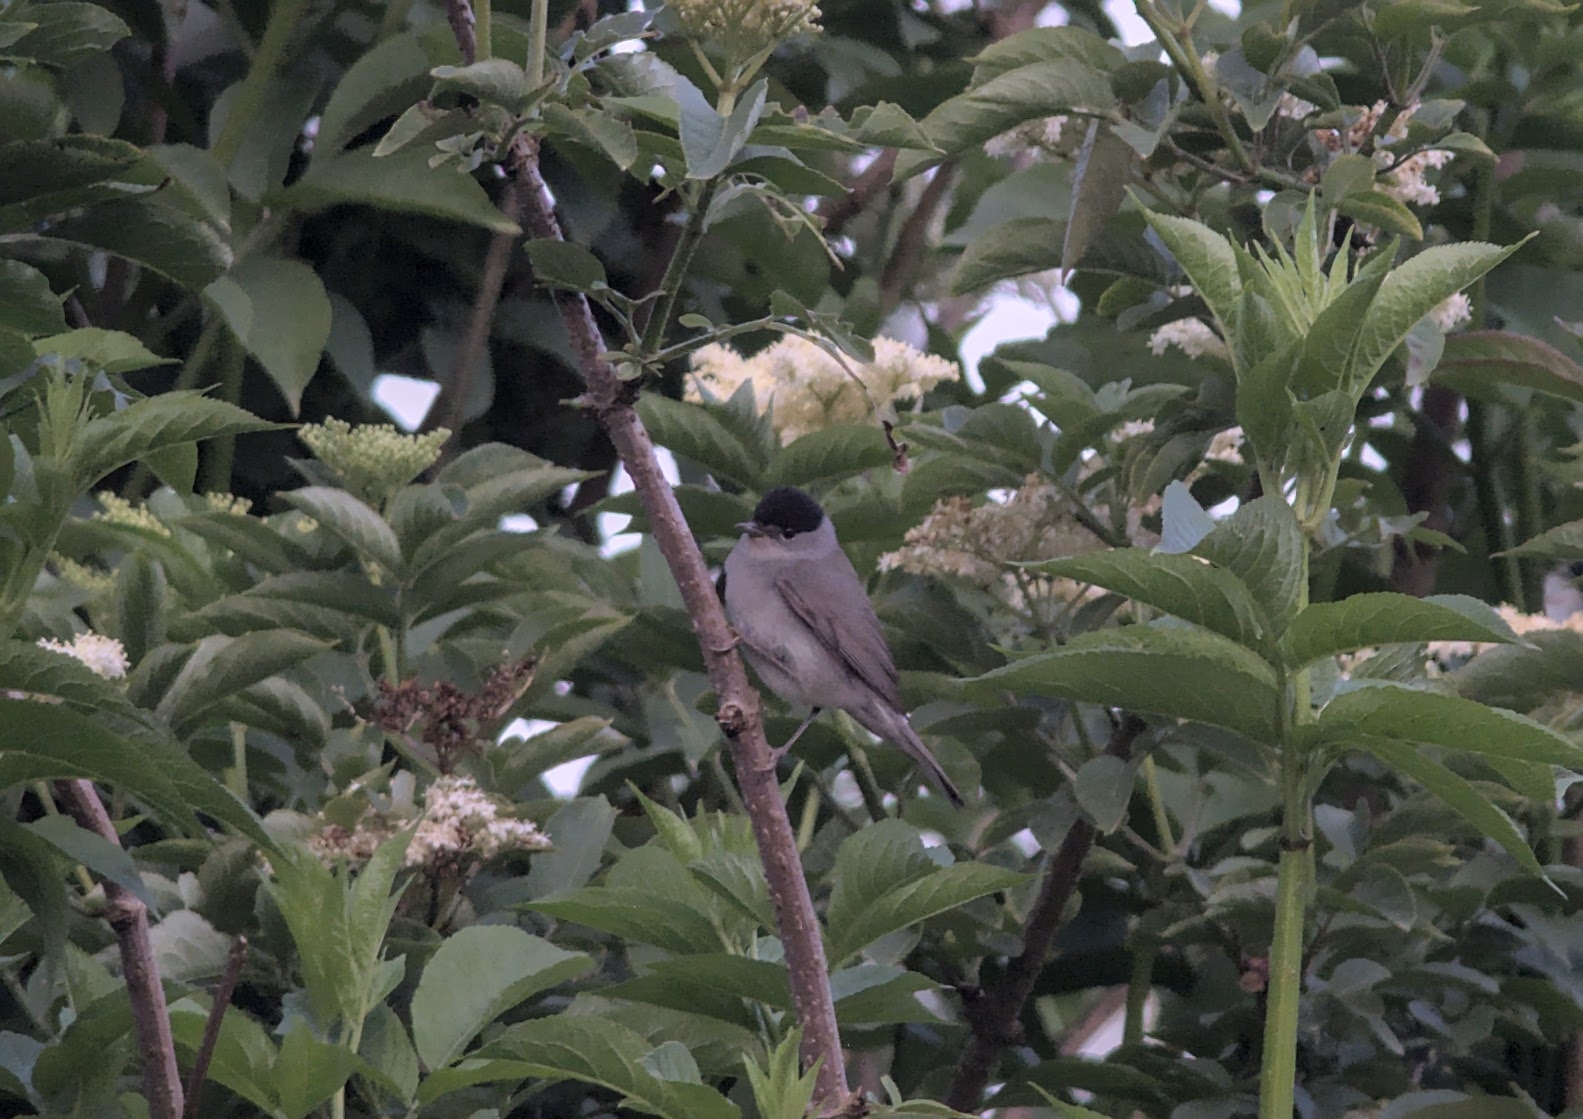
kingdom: Animalia
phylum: Chordata
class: Aves
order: Passeriformes
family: Sylviidae
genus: Sylvia
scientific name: Sylvia atricapilla
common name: Eurasian blackcap
